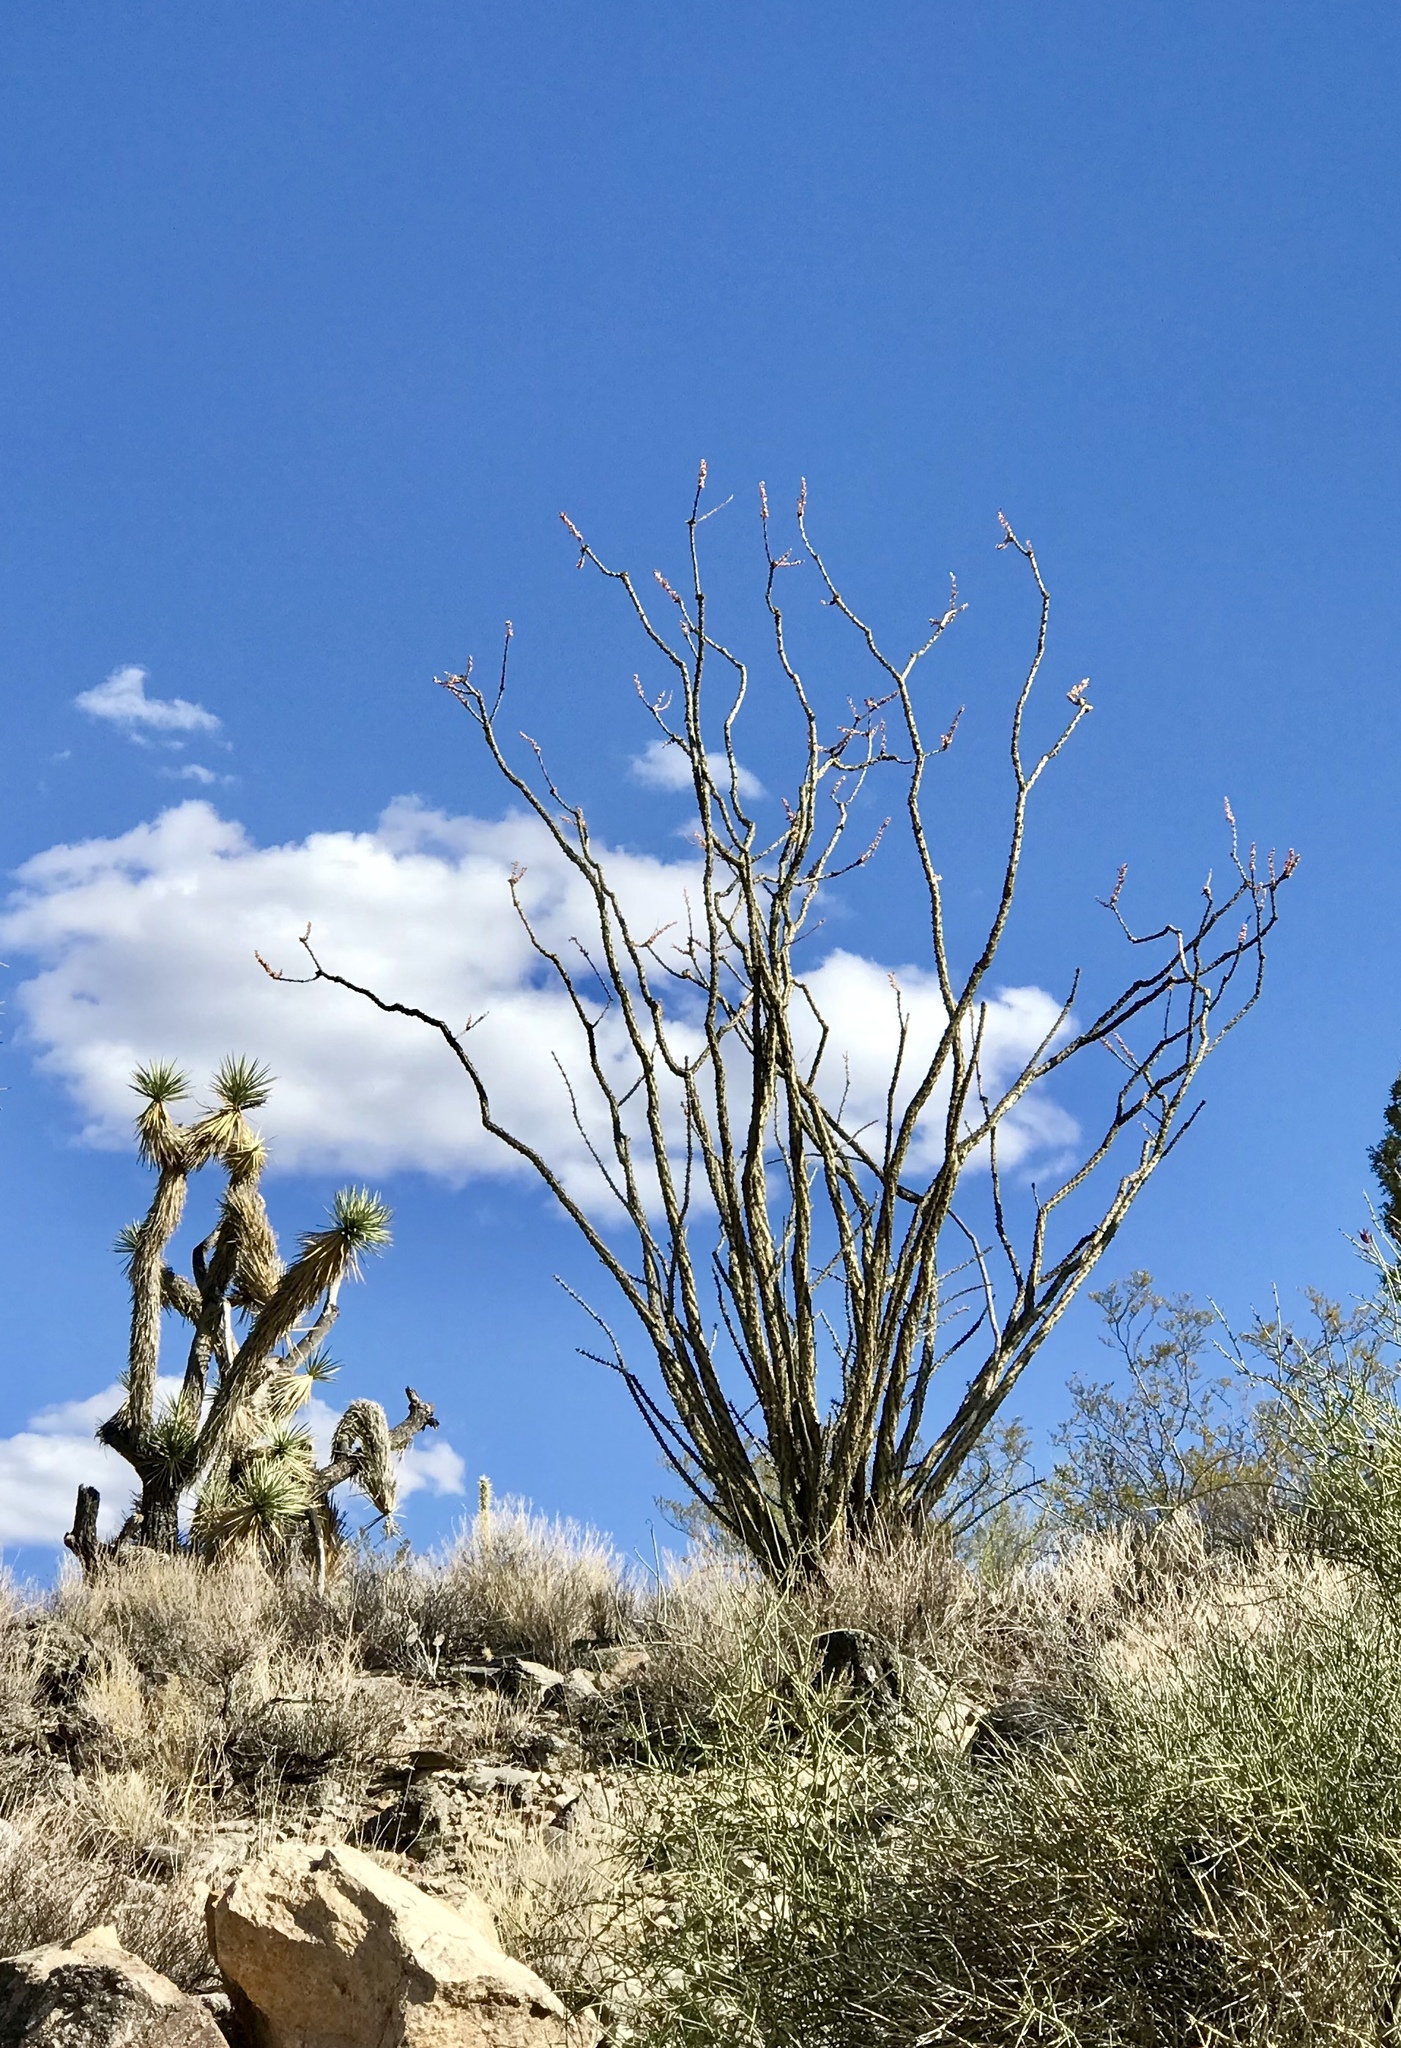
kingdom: Plantae
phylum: Tracheophyta
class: Magnoliopsida
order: Ericales
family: Fouquieriaceae
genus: Fouquieria
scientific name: Fouquieria splendens
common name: Vine-cactus
